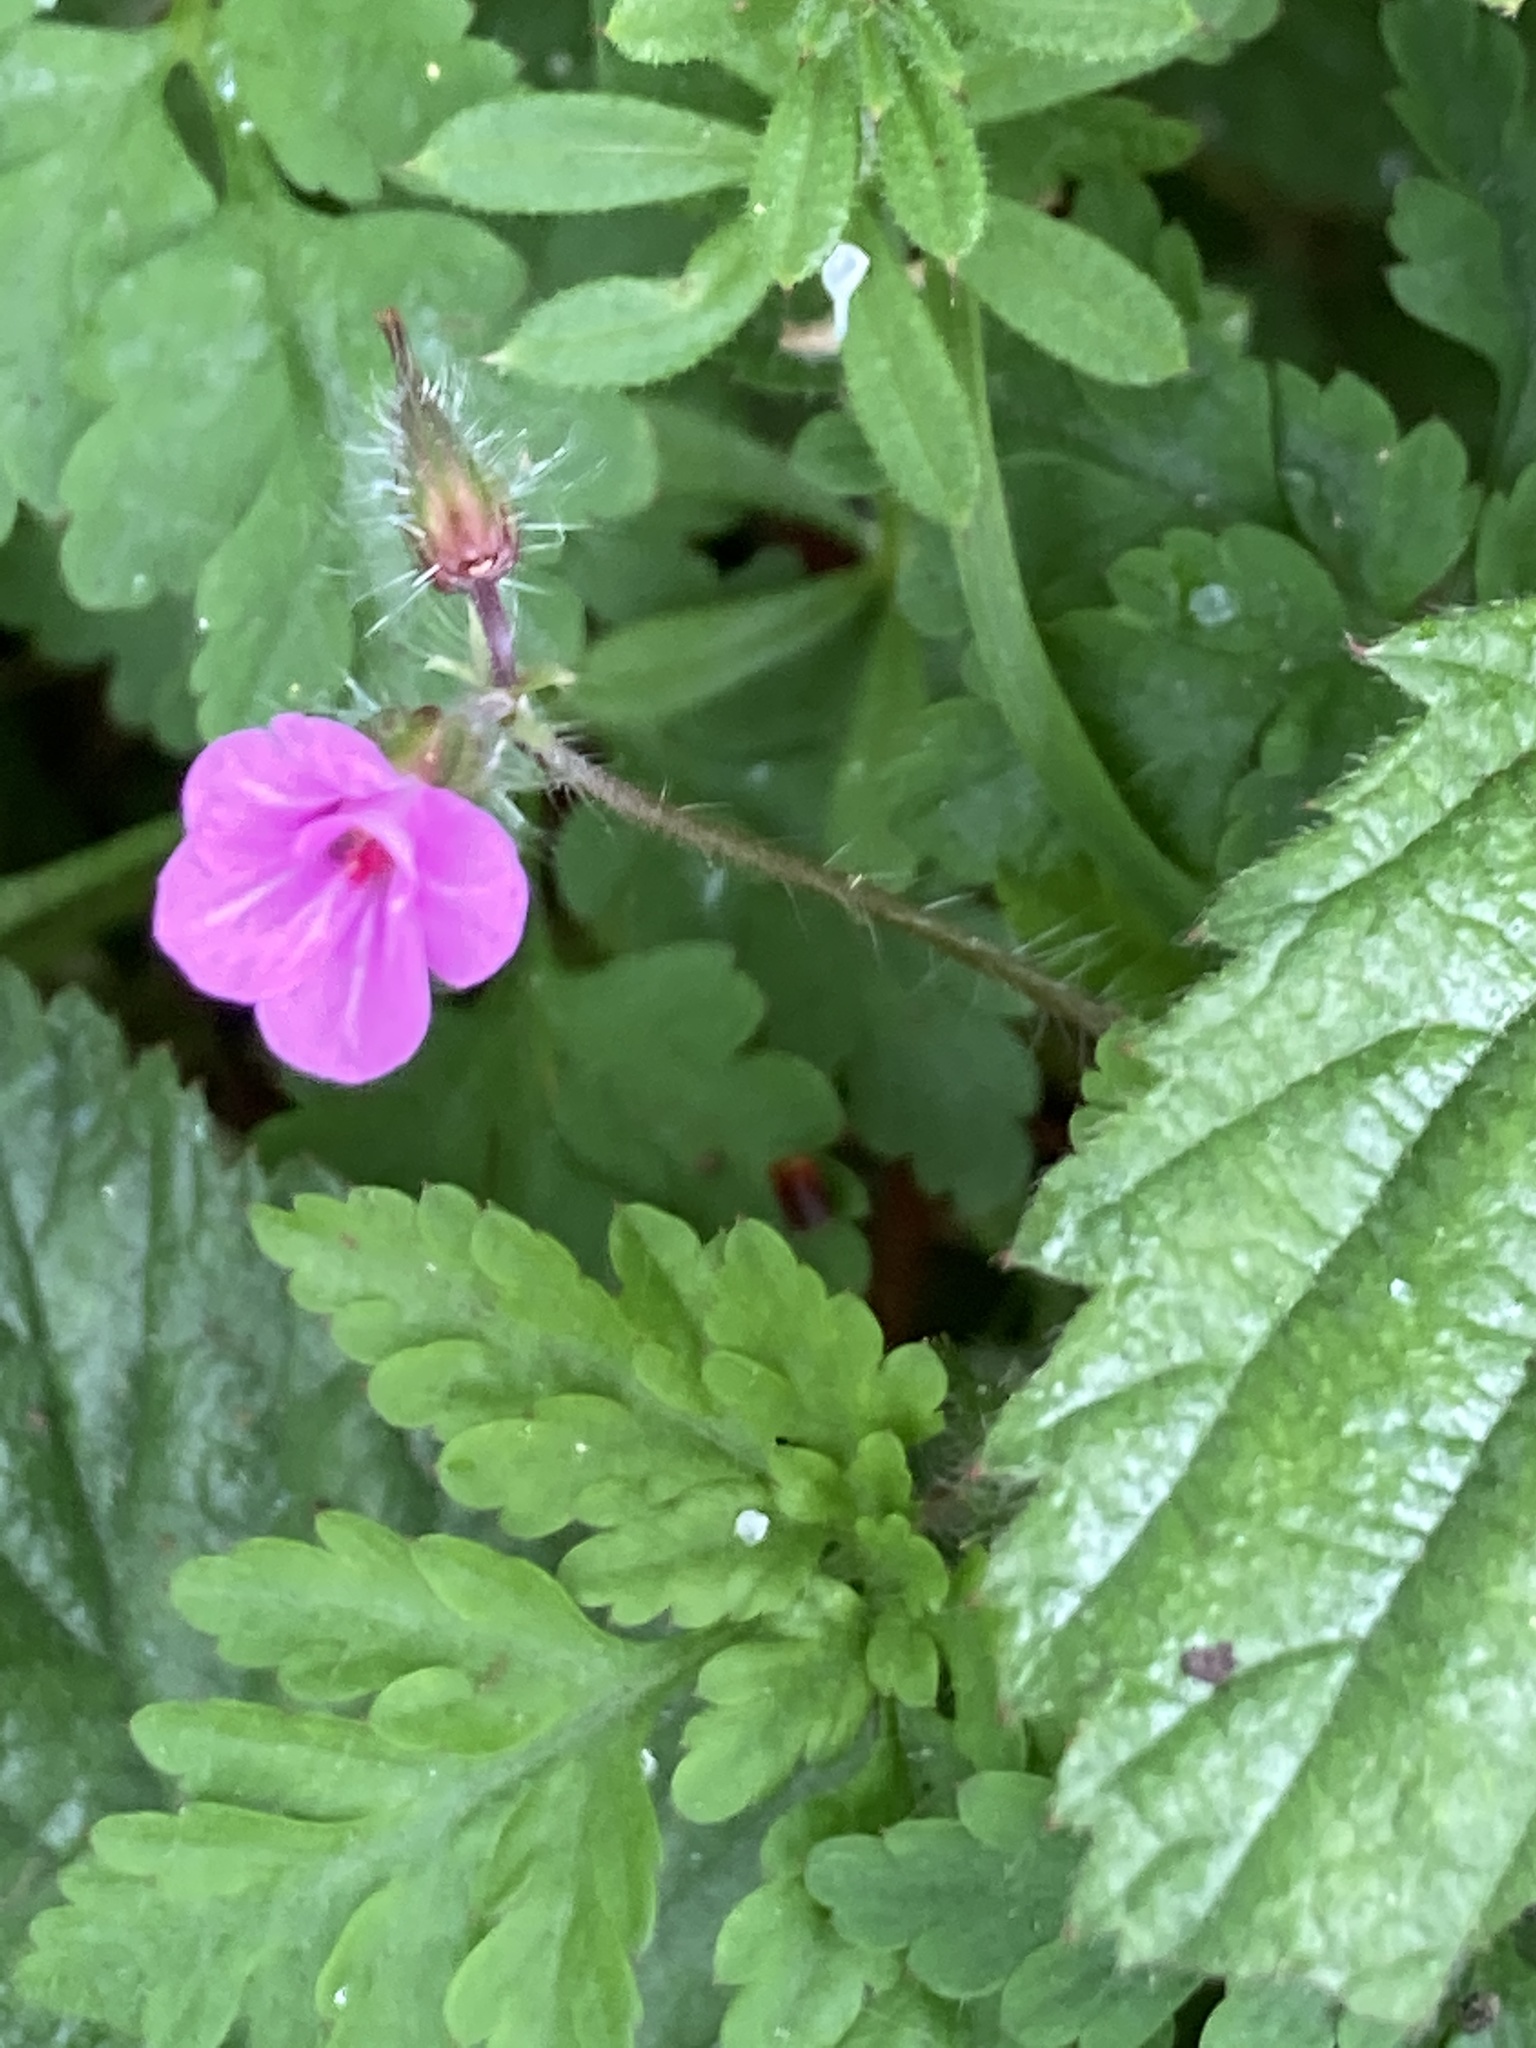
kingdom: Plantae
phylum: Tracheophyta
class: Magnoliopsida
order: Geraniales
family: Geraniaceae
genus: Geranium
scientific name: Geranium robertianum
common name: Herb-robert
